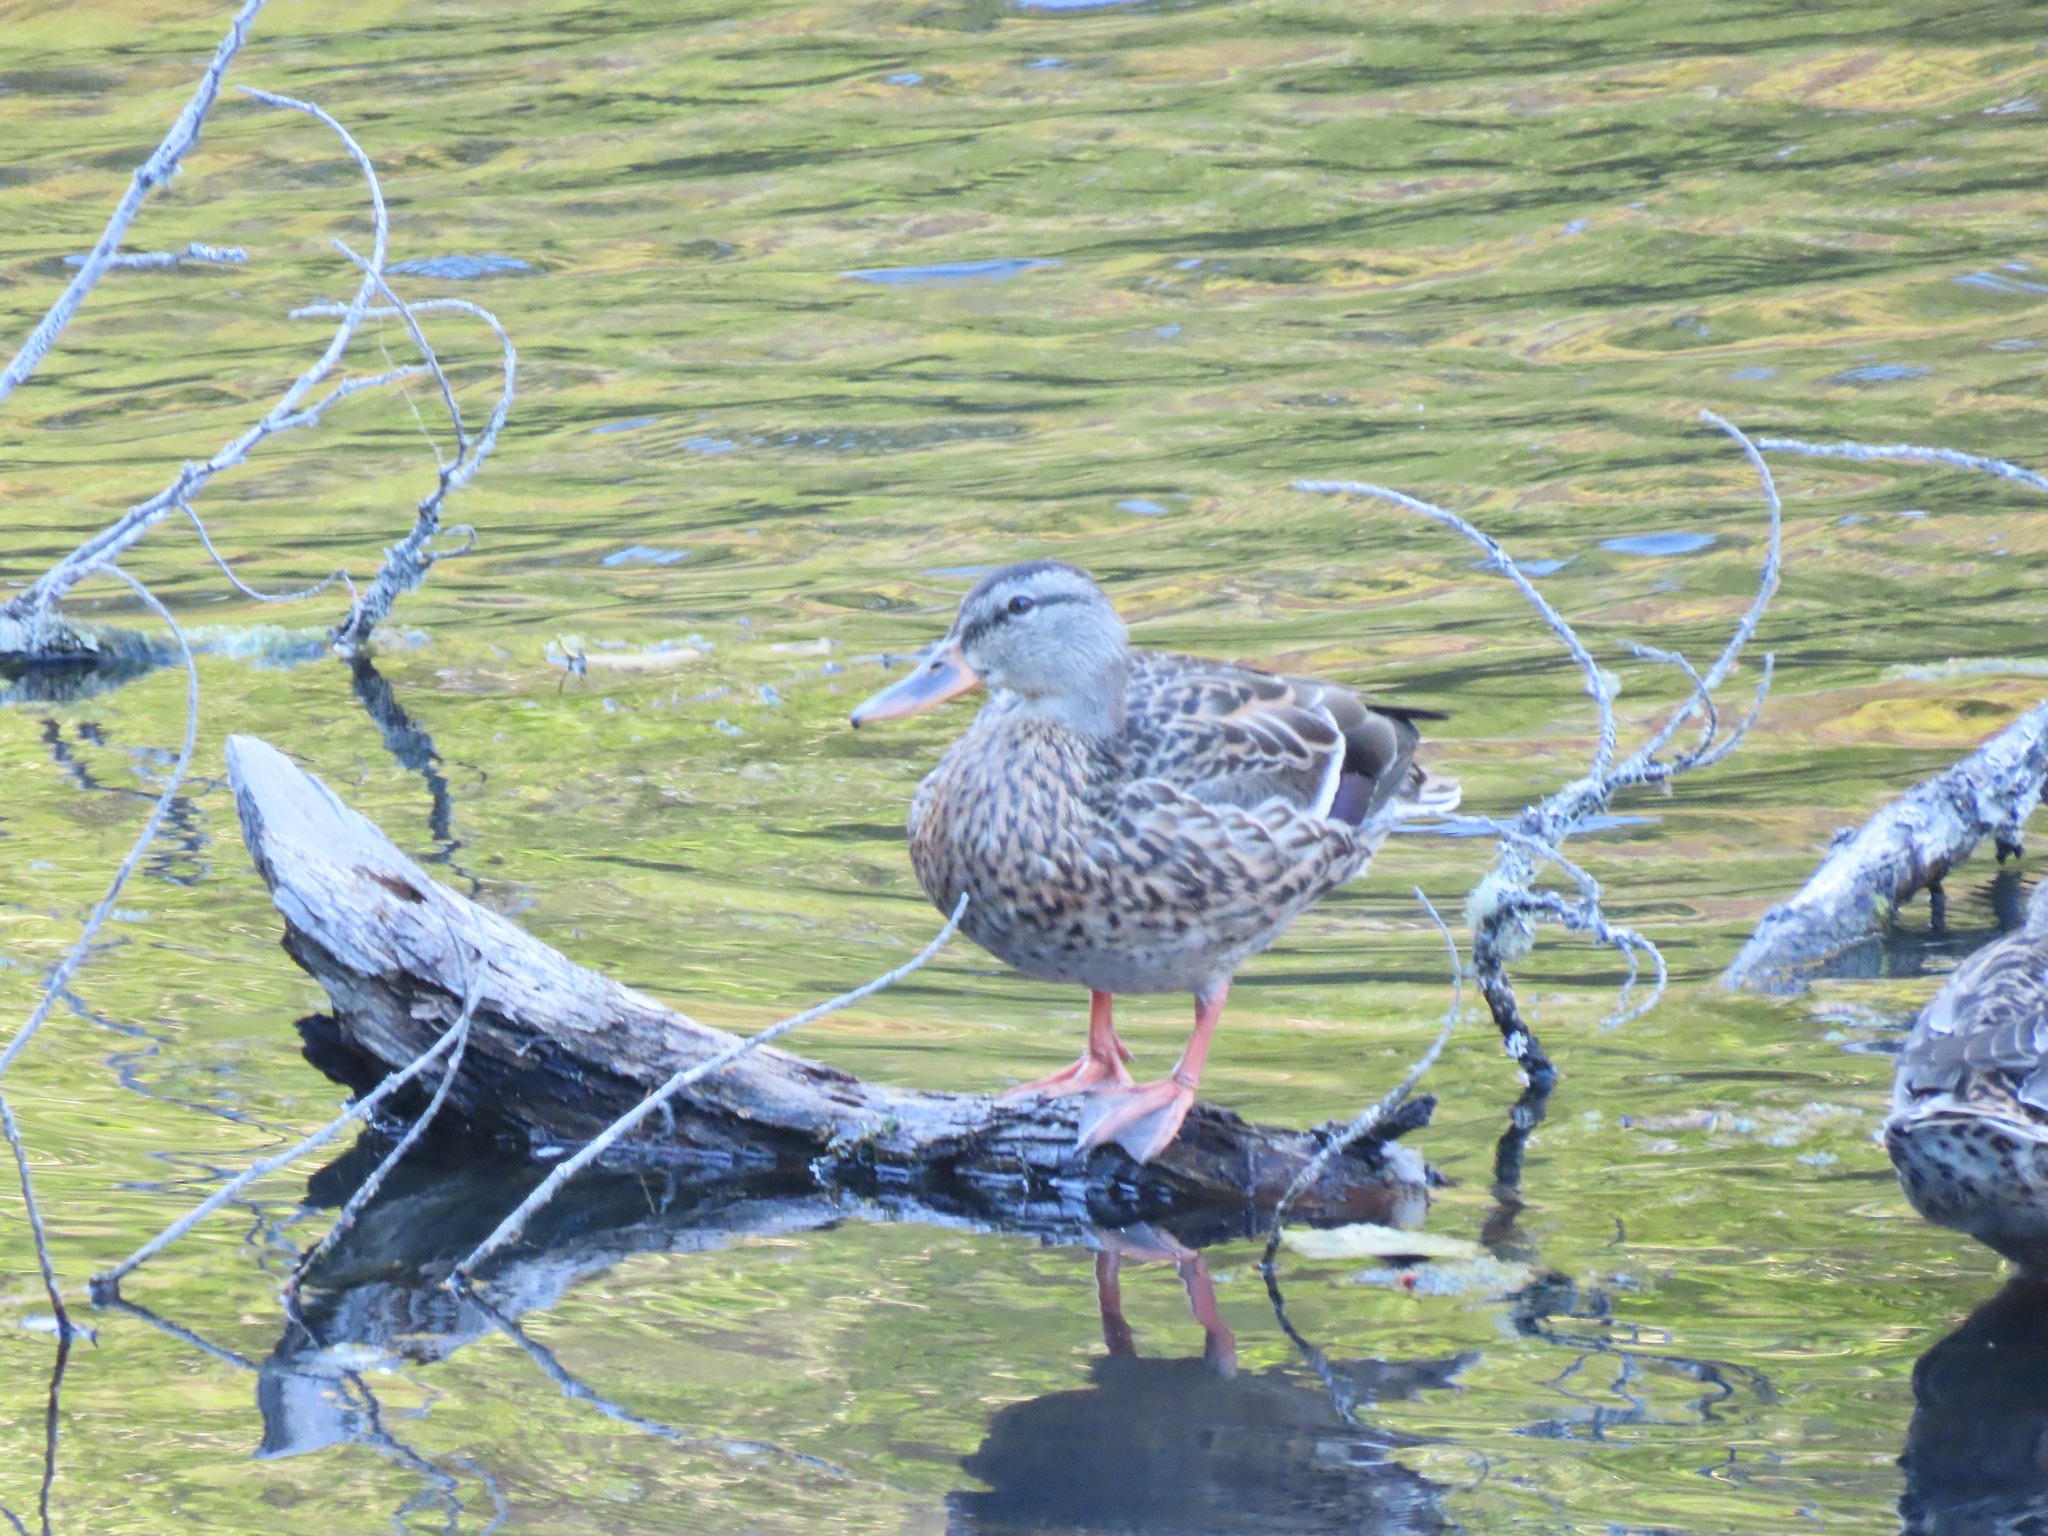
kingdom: Animalia
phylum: Chordata
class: Aves
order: Anseriformes
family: Anatidae
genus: Anas
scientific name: Anas platyrhynchos
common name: Mallard
